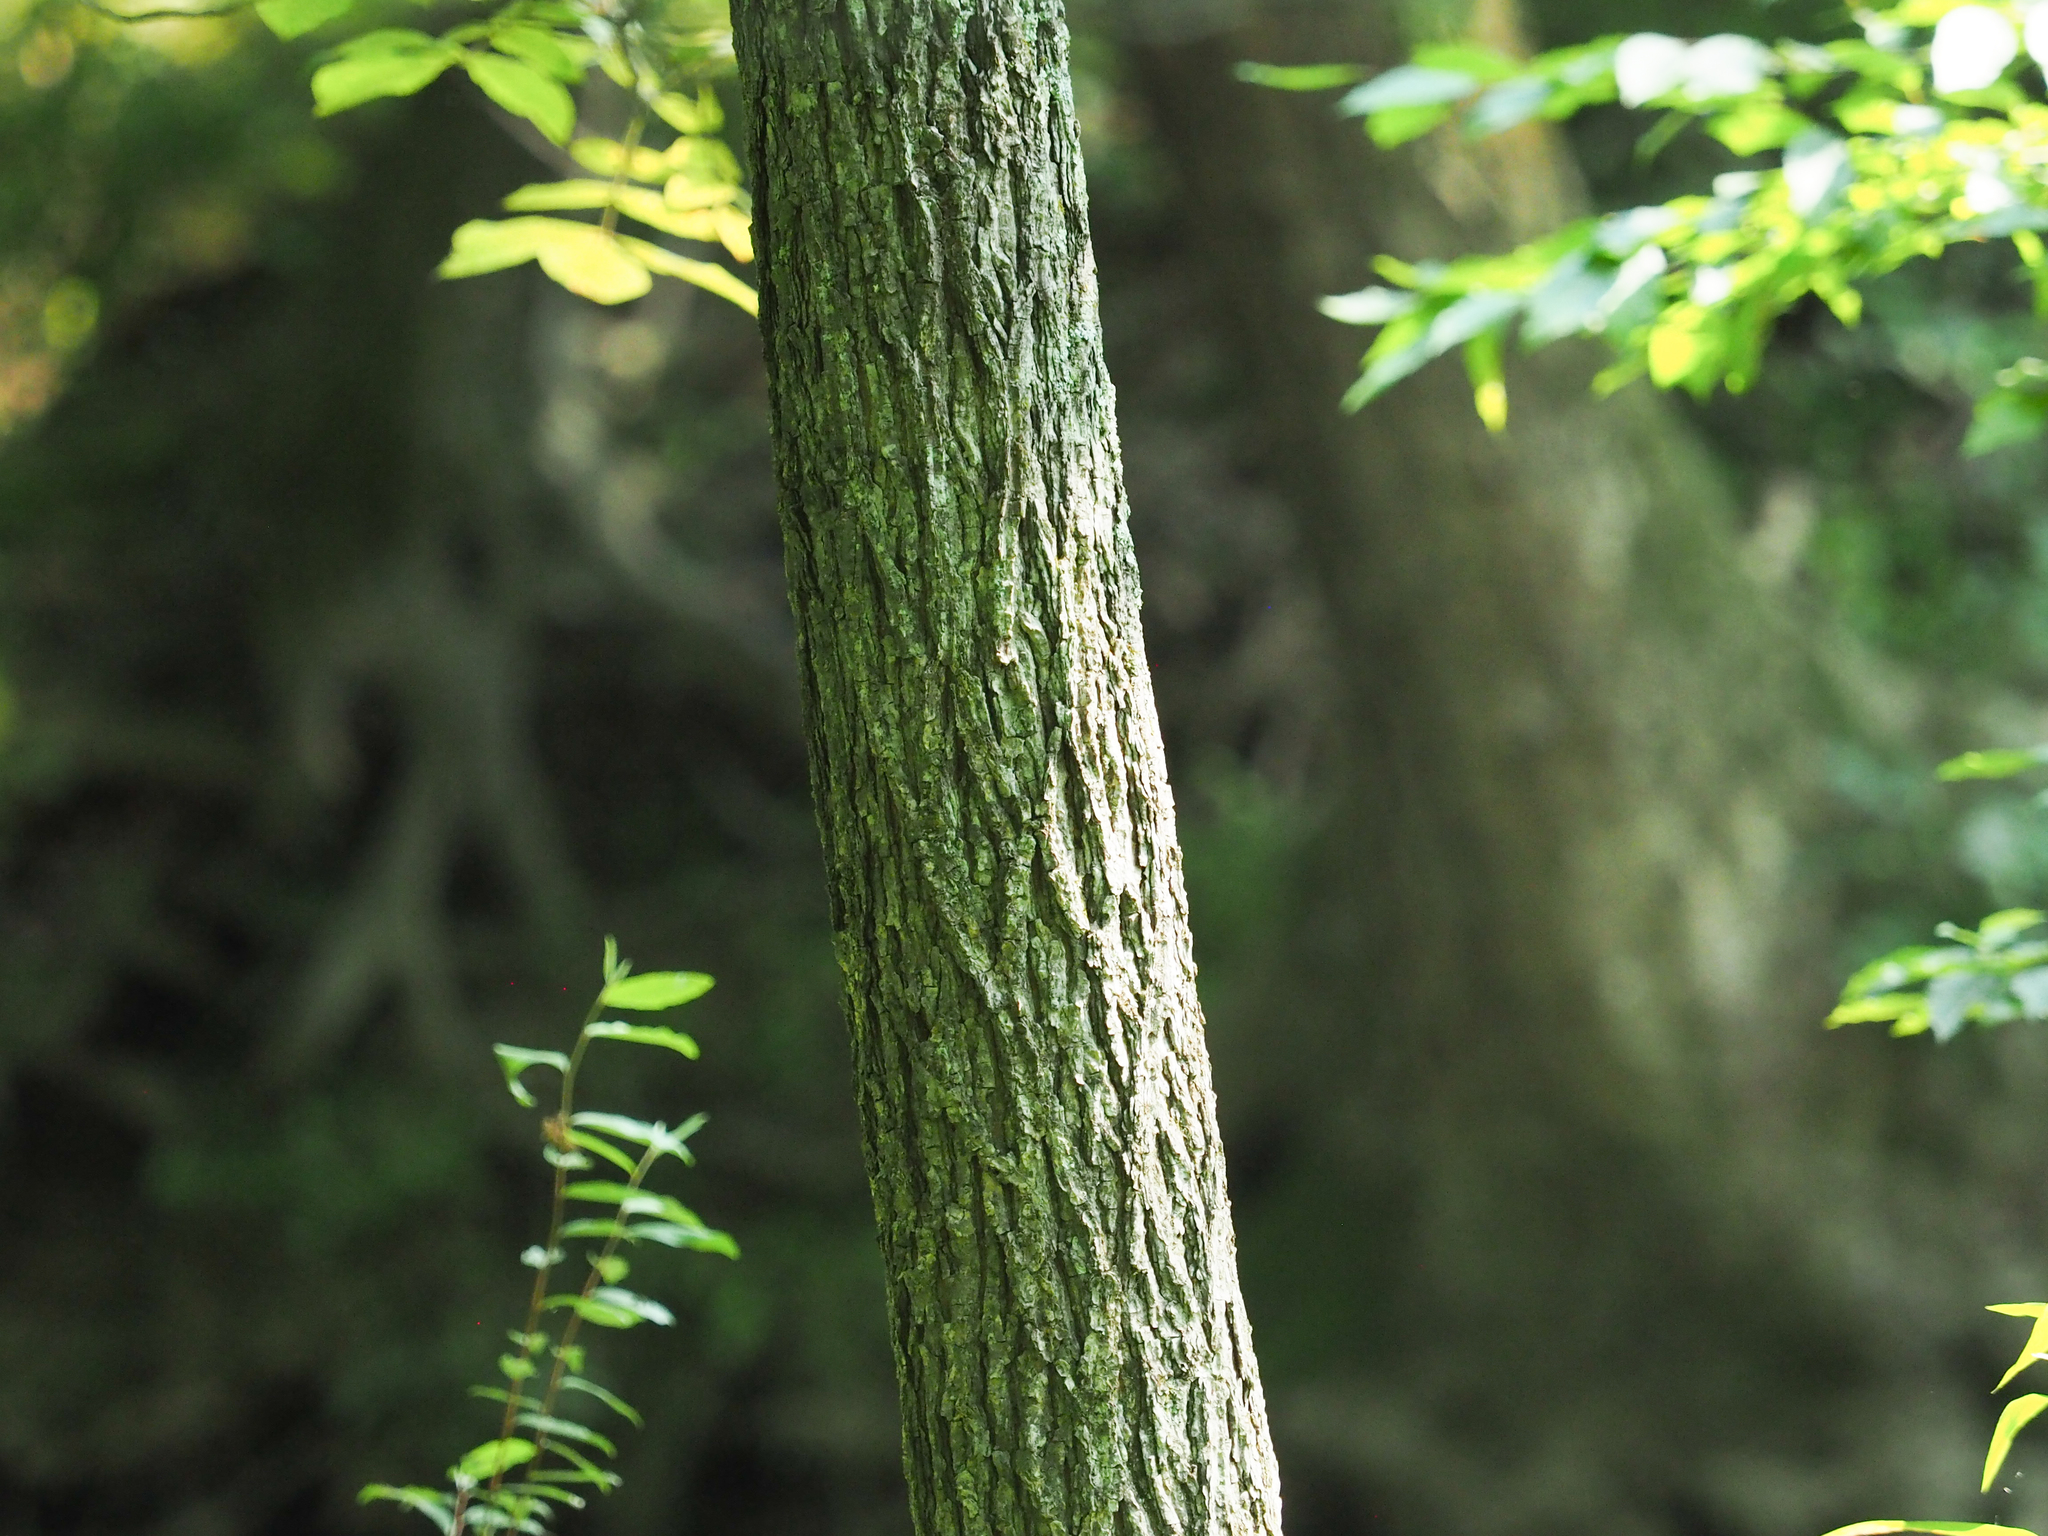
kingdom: Plantae
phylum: Tracheophyta
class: Magnoliopsida
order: Fagales
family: Juglandaceae
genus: Carya
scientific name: Carya alba
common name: Mockernut hickory
